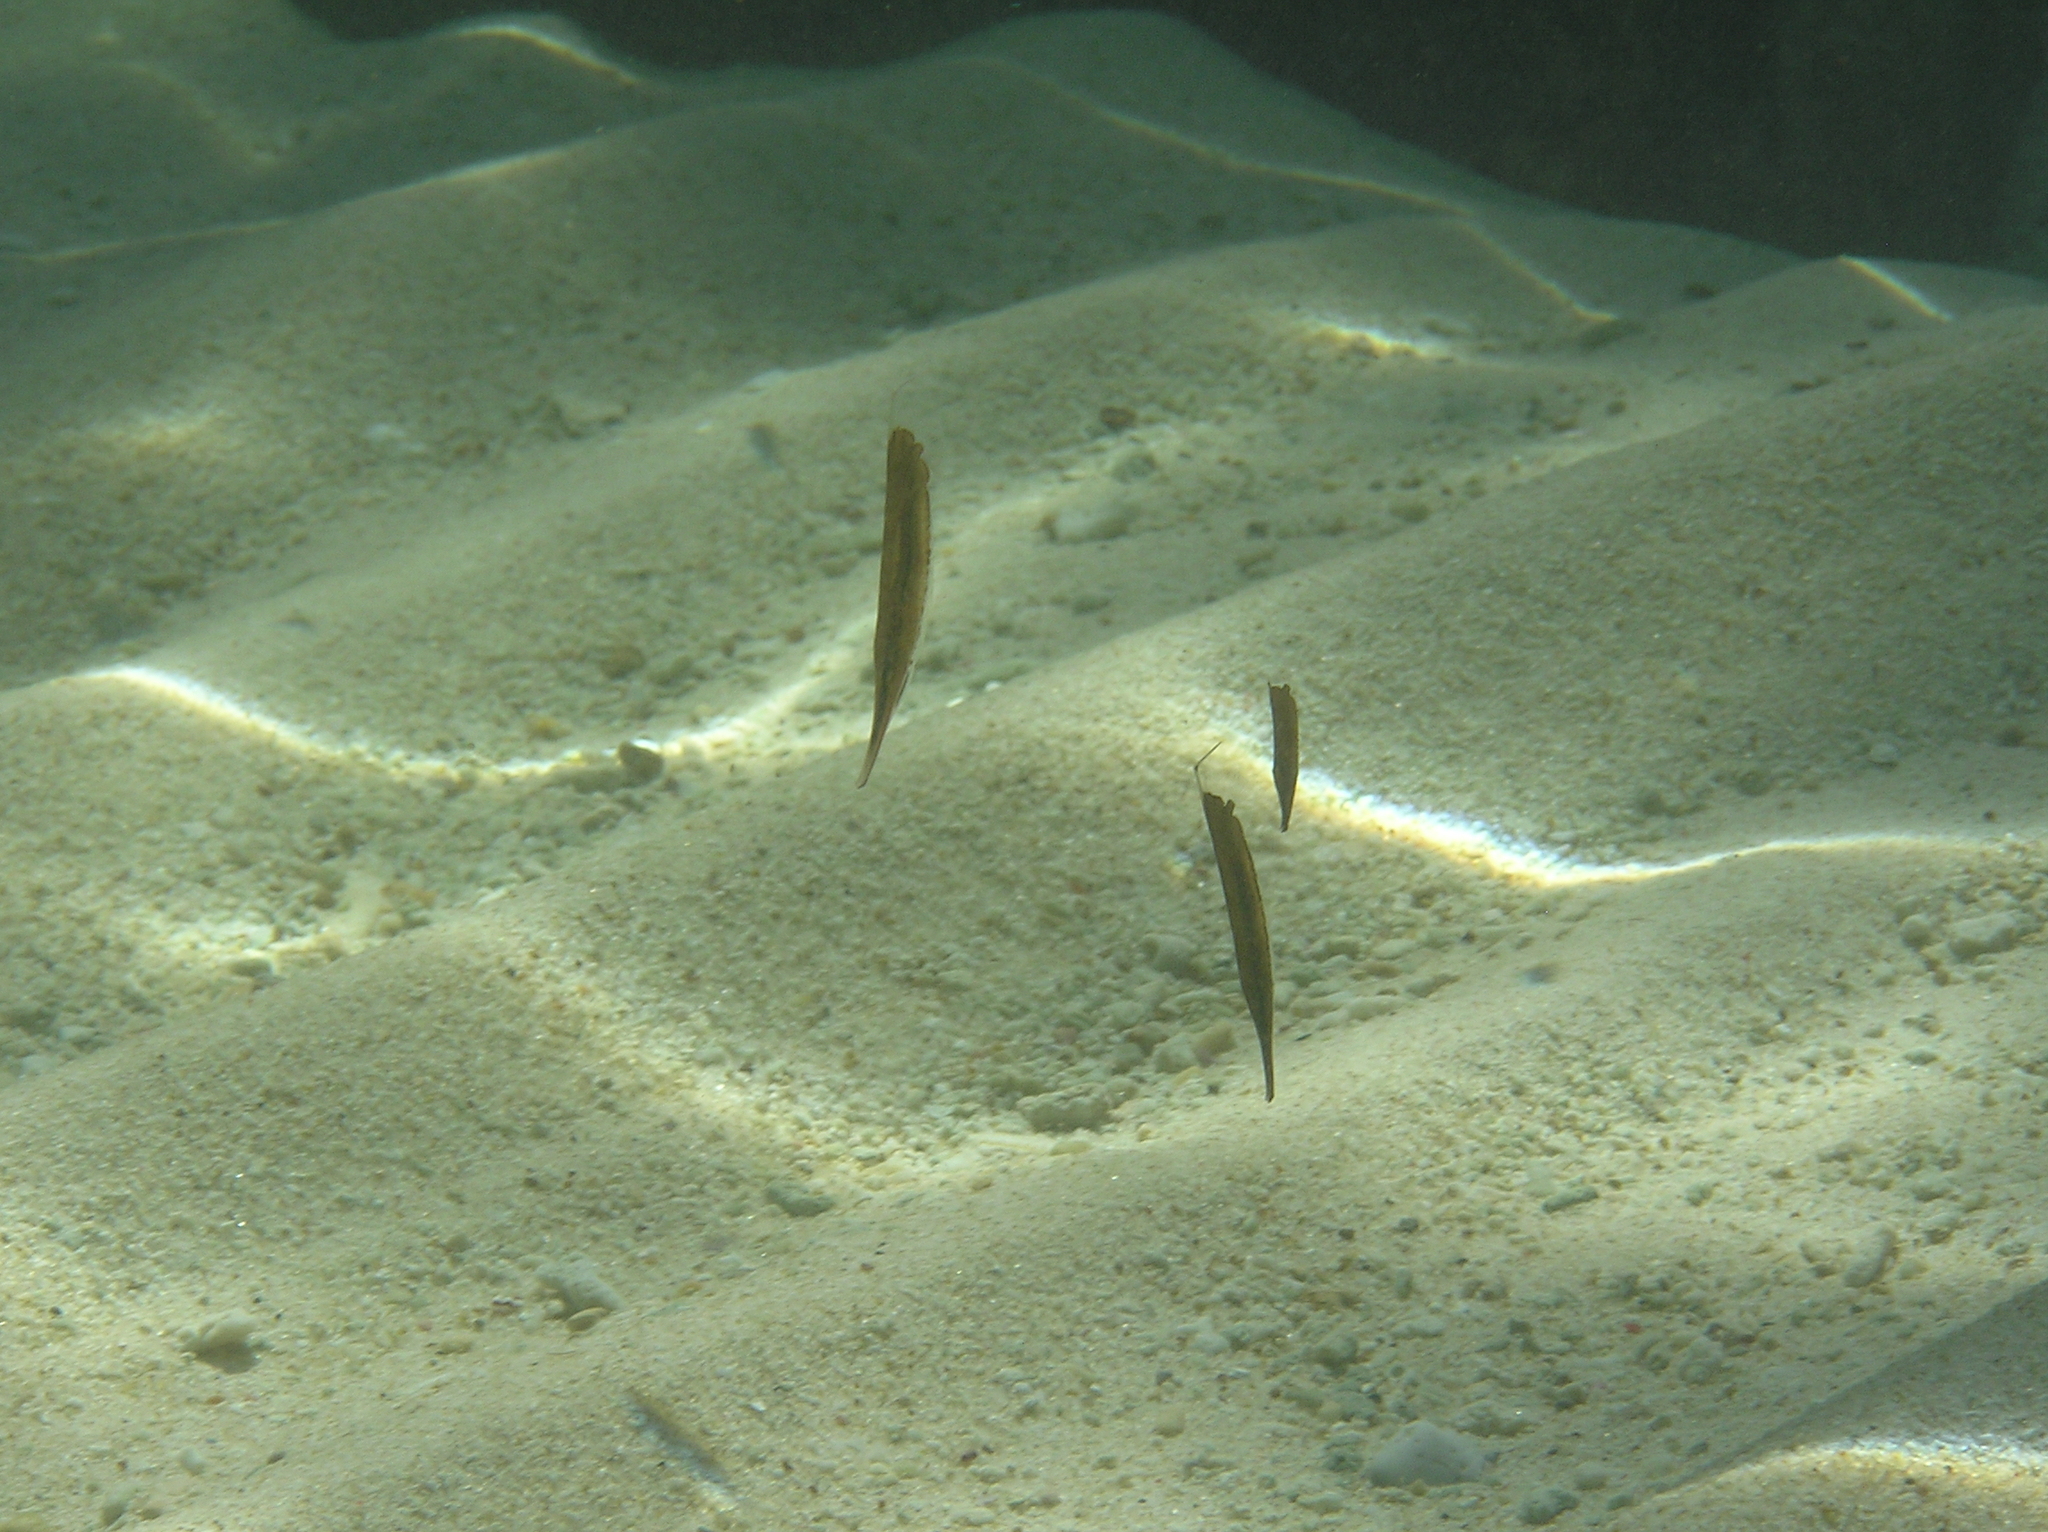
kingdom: Animalia
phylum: Chordata
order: Syngnathiformes
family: Centriscidae
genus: Aeoliscus
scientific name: Aeoliscus strigatus
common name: Canif
